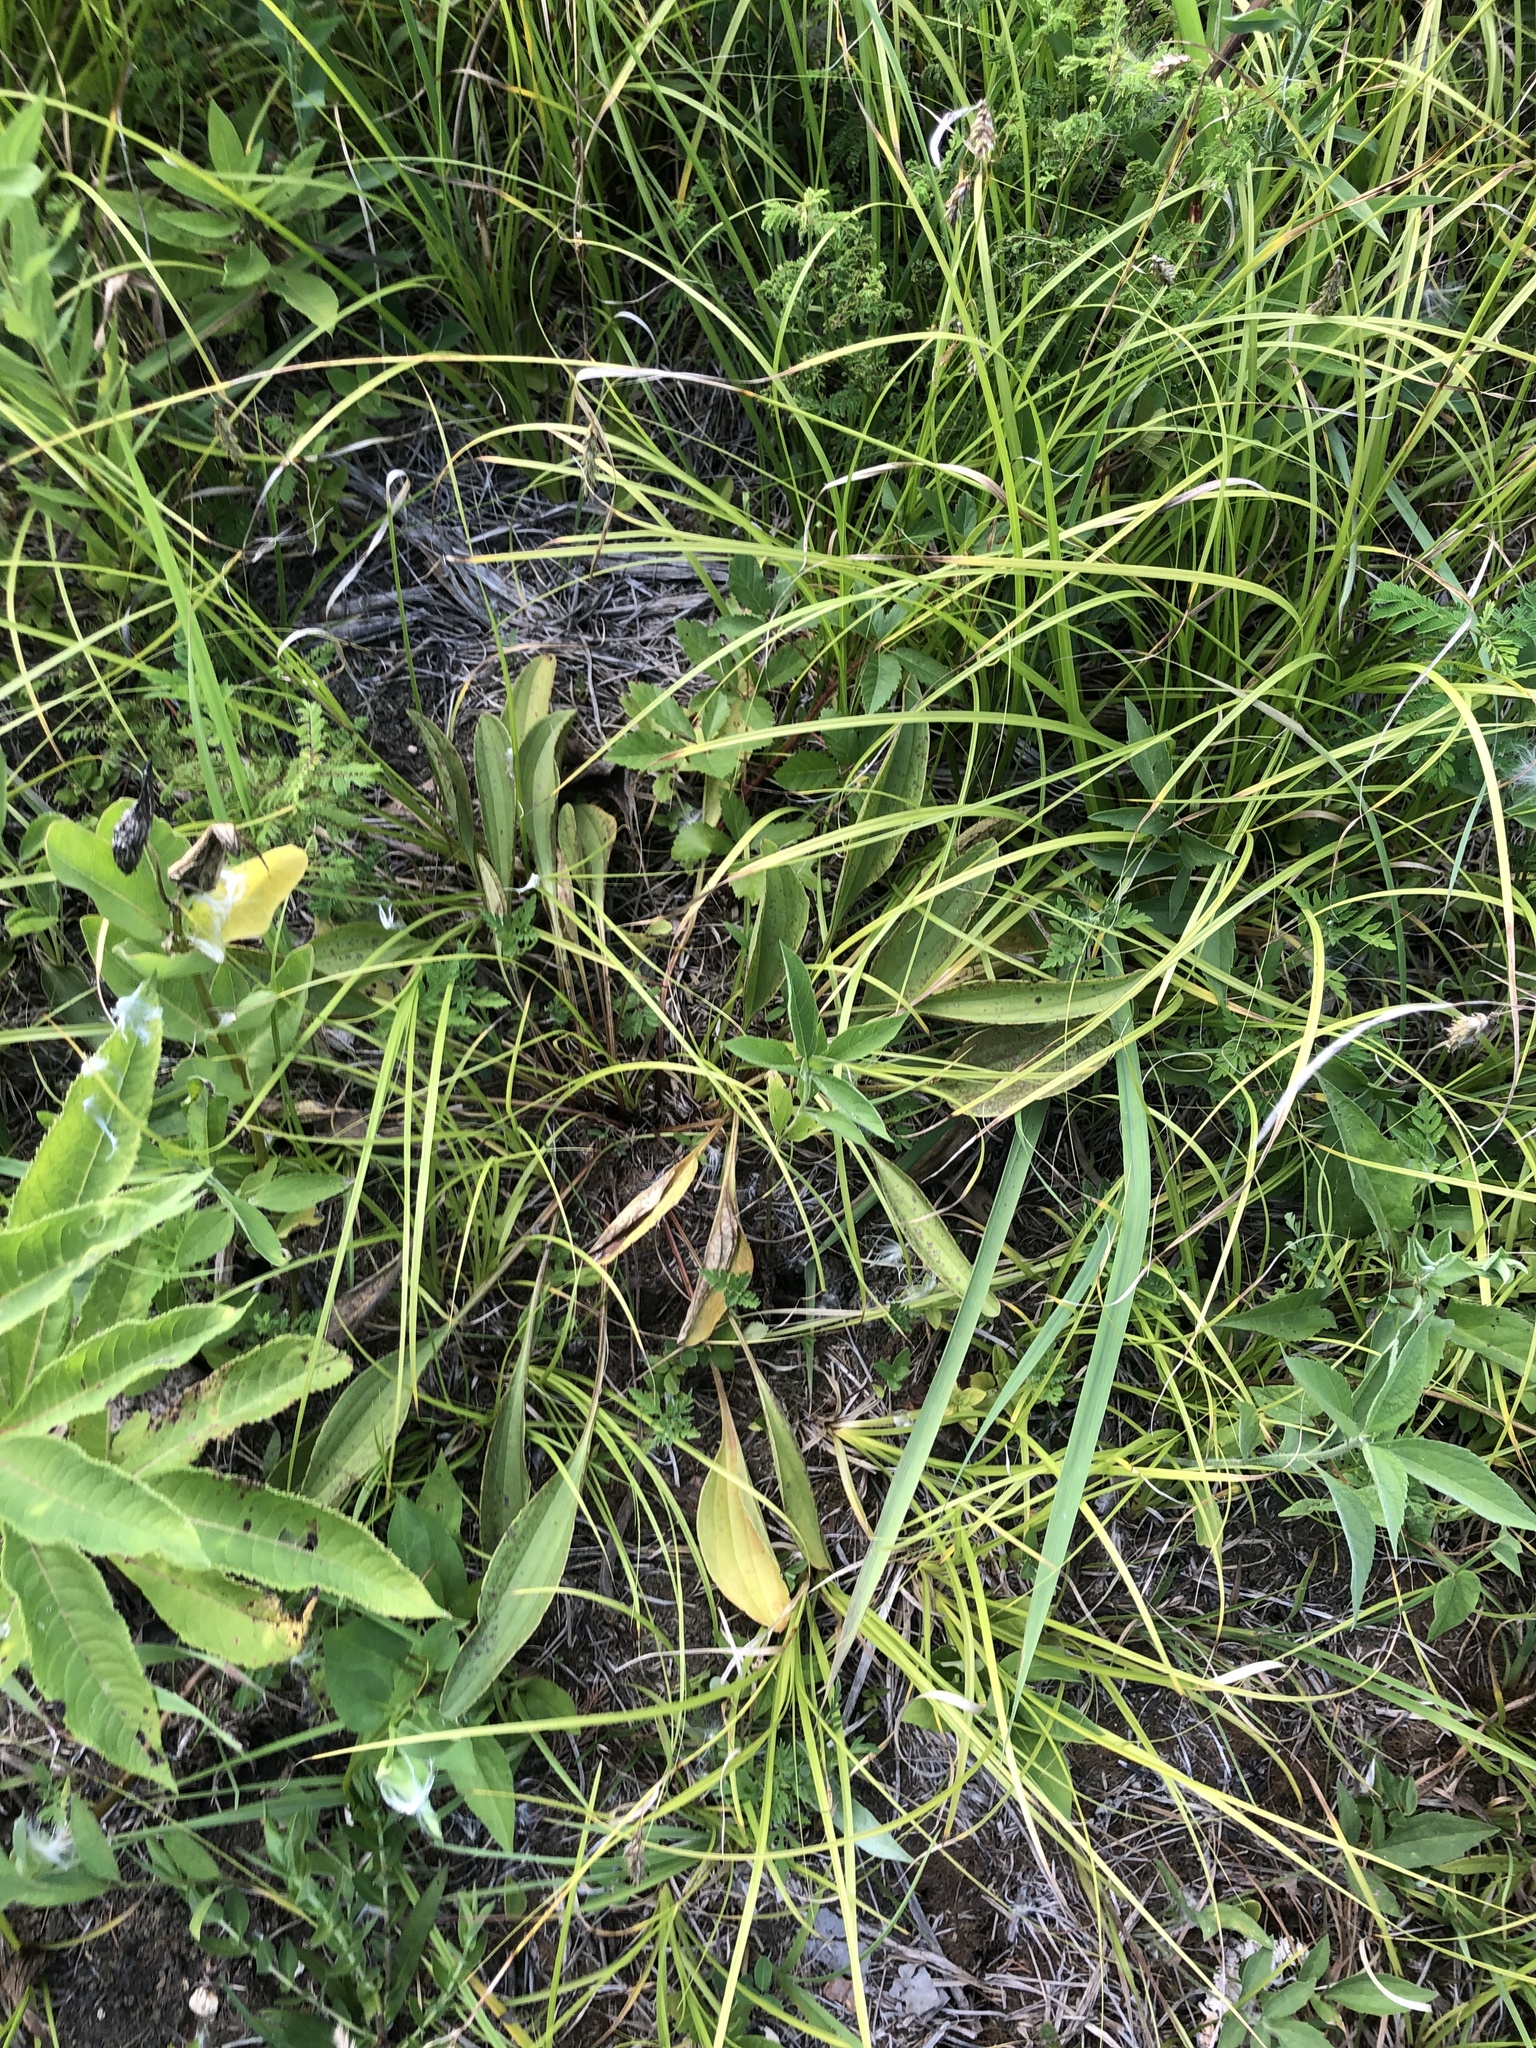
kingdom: Plantae
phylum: Tracheophyta
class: Magnoliopsida
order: Asterales
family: Asteraceae
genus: Arnoglossum
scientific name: Arnoglossum plantagineum
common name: Groove-stemmed indian-plantain
